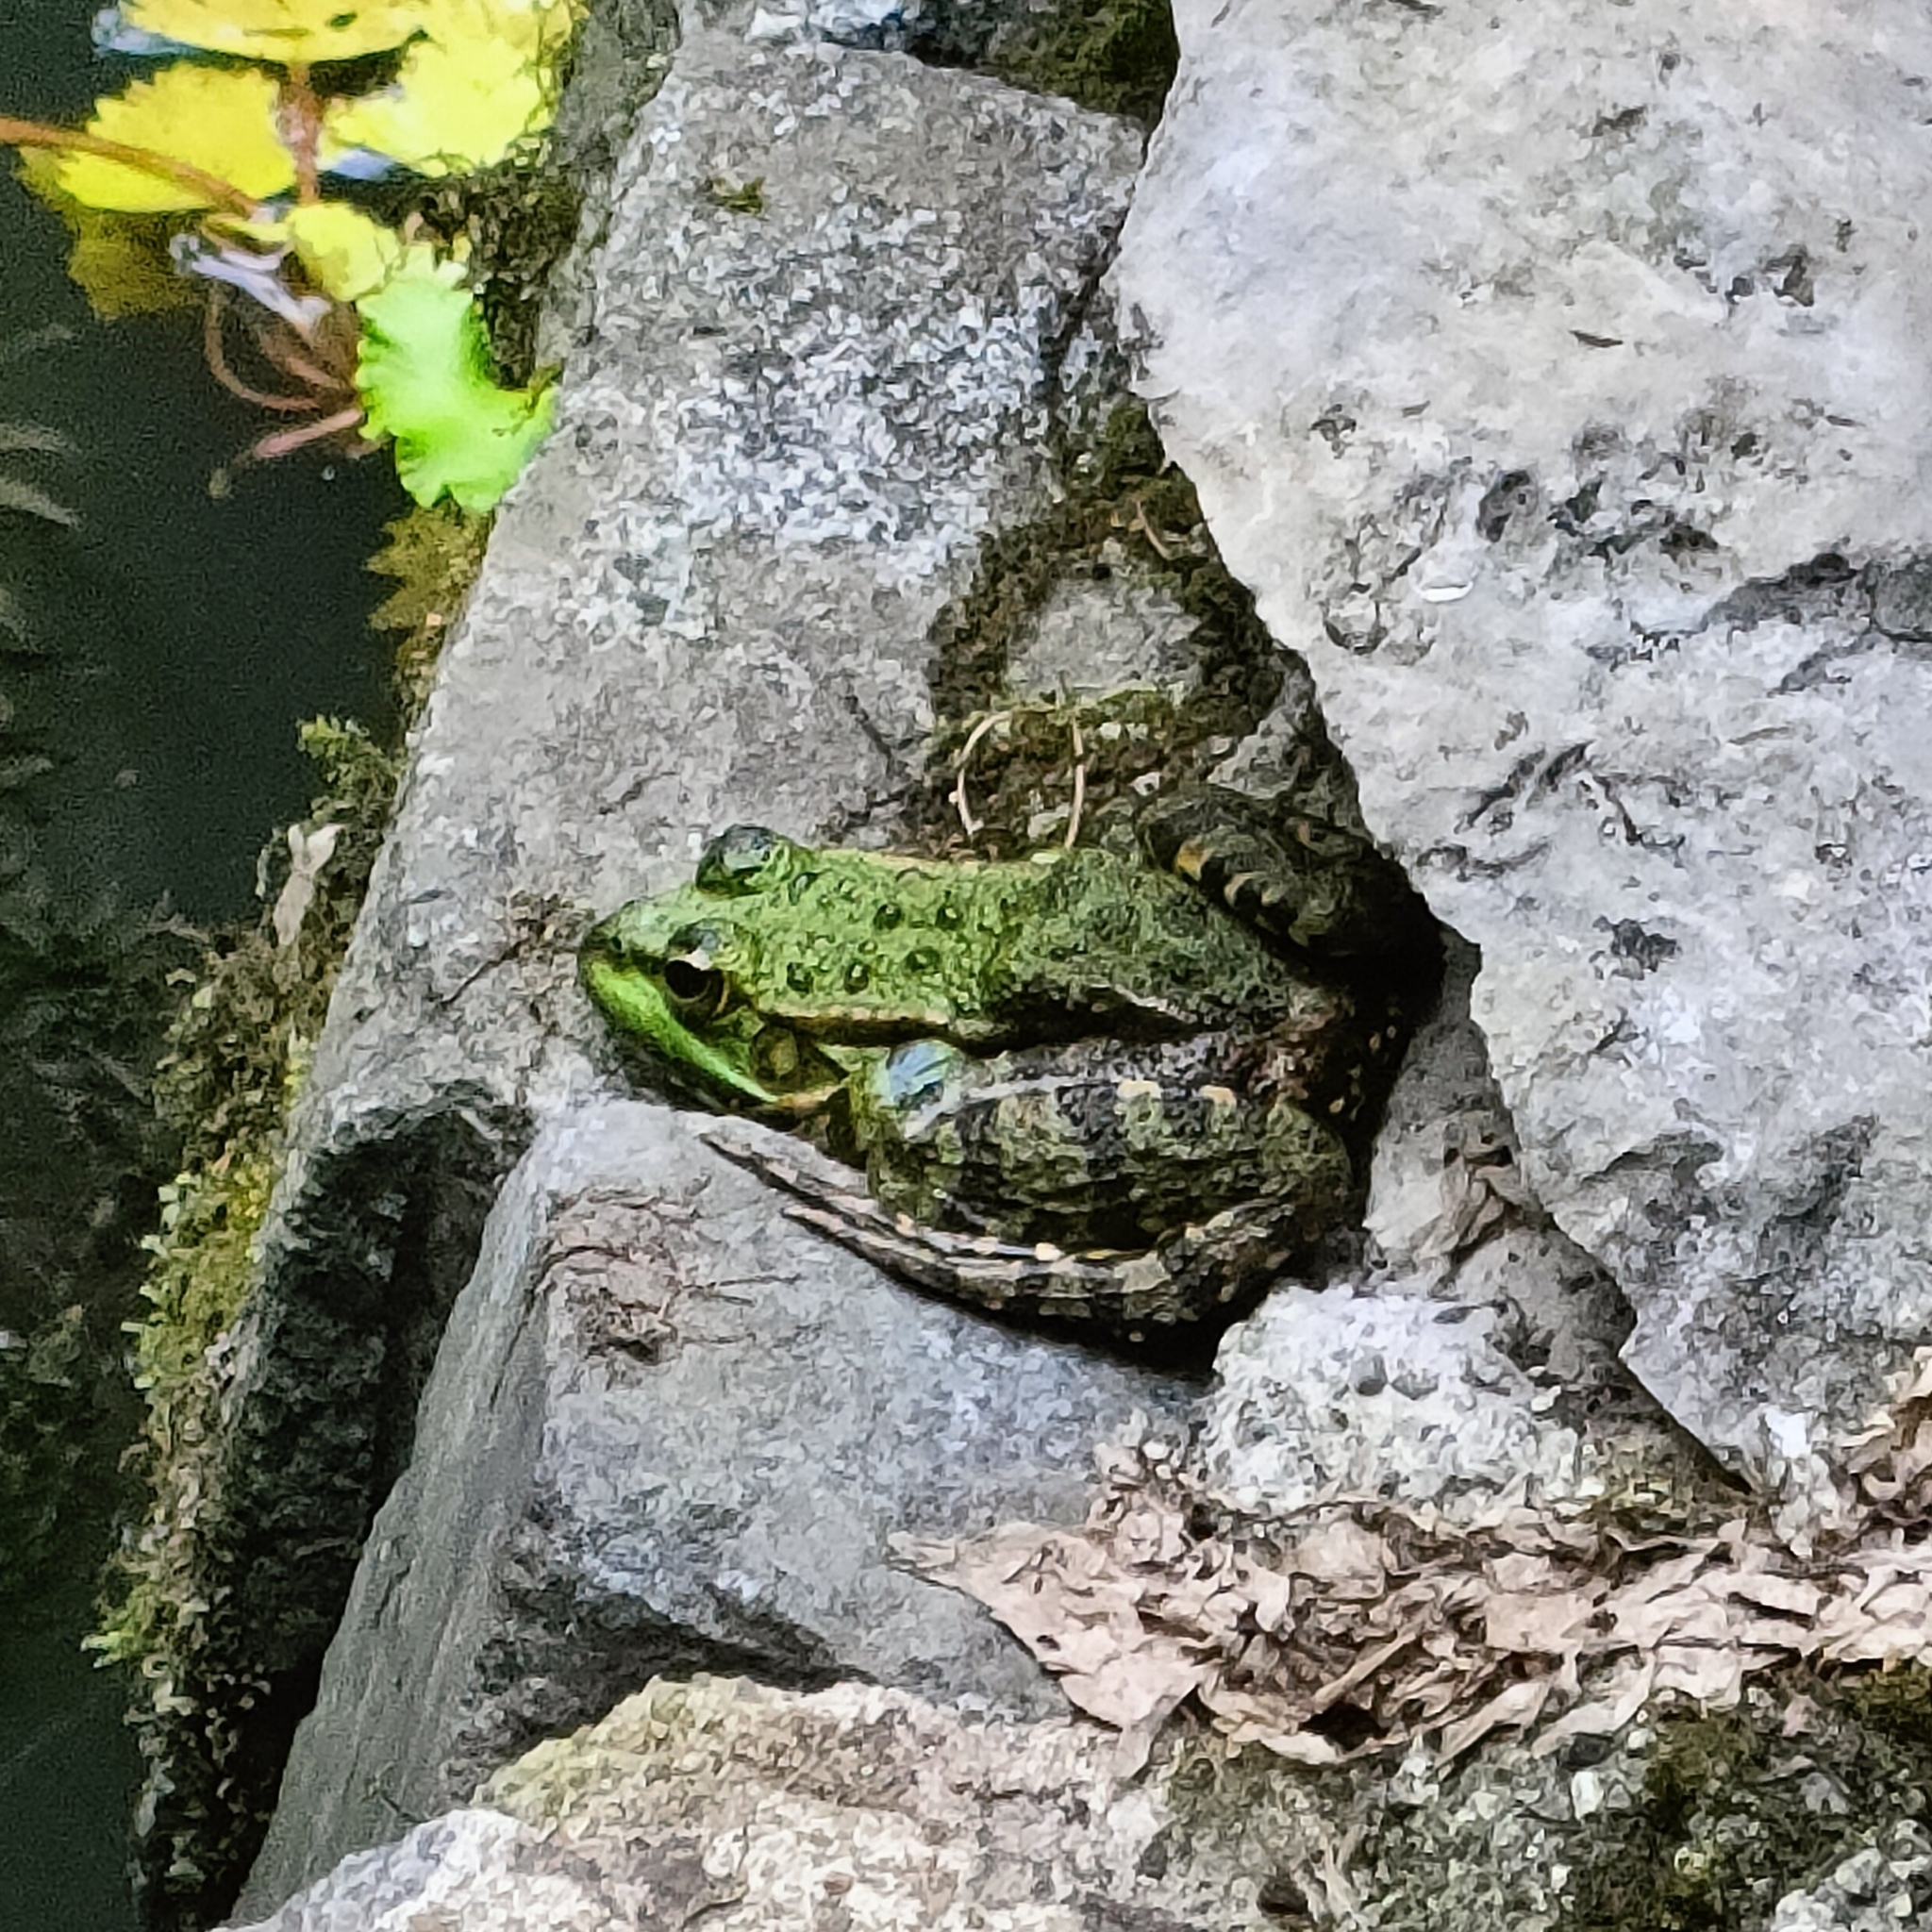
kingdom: Animalia
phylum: Chordata
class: Amphibia
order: Anura
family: Ranidae
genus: Pelophylax
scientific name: Pelophylax ridibundus
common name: Marsh frog
